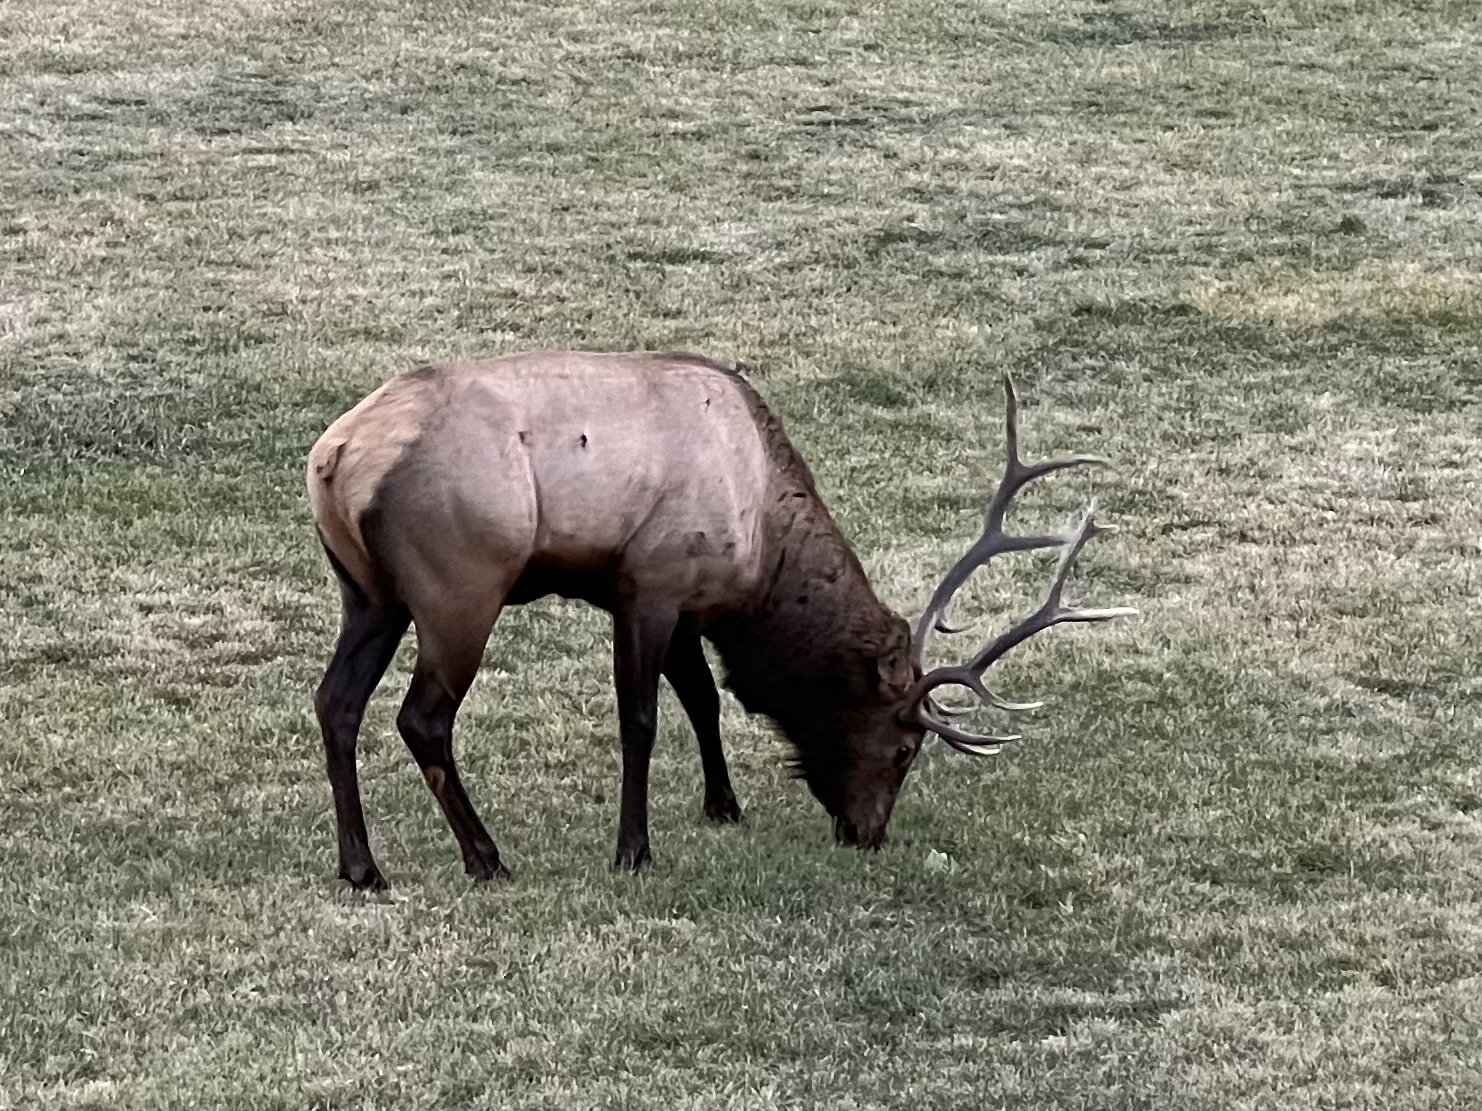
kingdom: Animalia
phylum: Chordata
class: Mammalia
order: Artiodactyla
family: Cervidae
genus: Cervus
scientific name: Cervus elaphus
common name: Red deer
